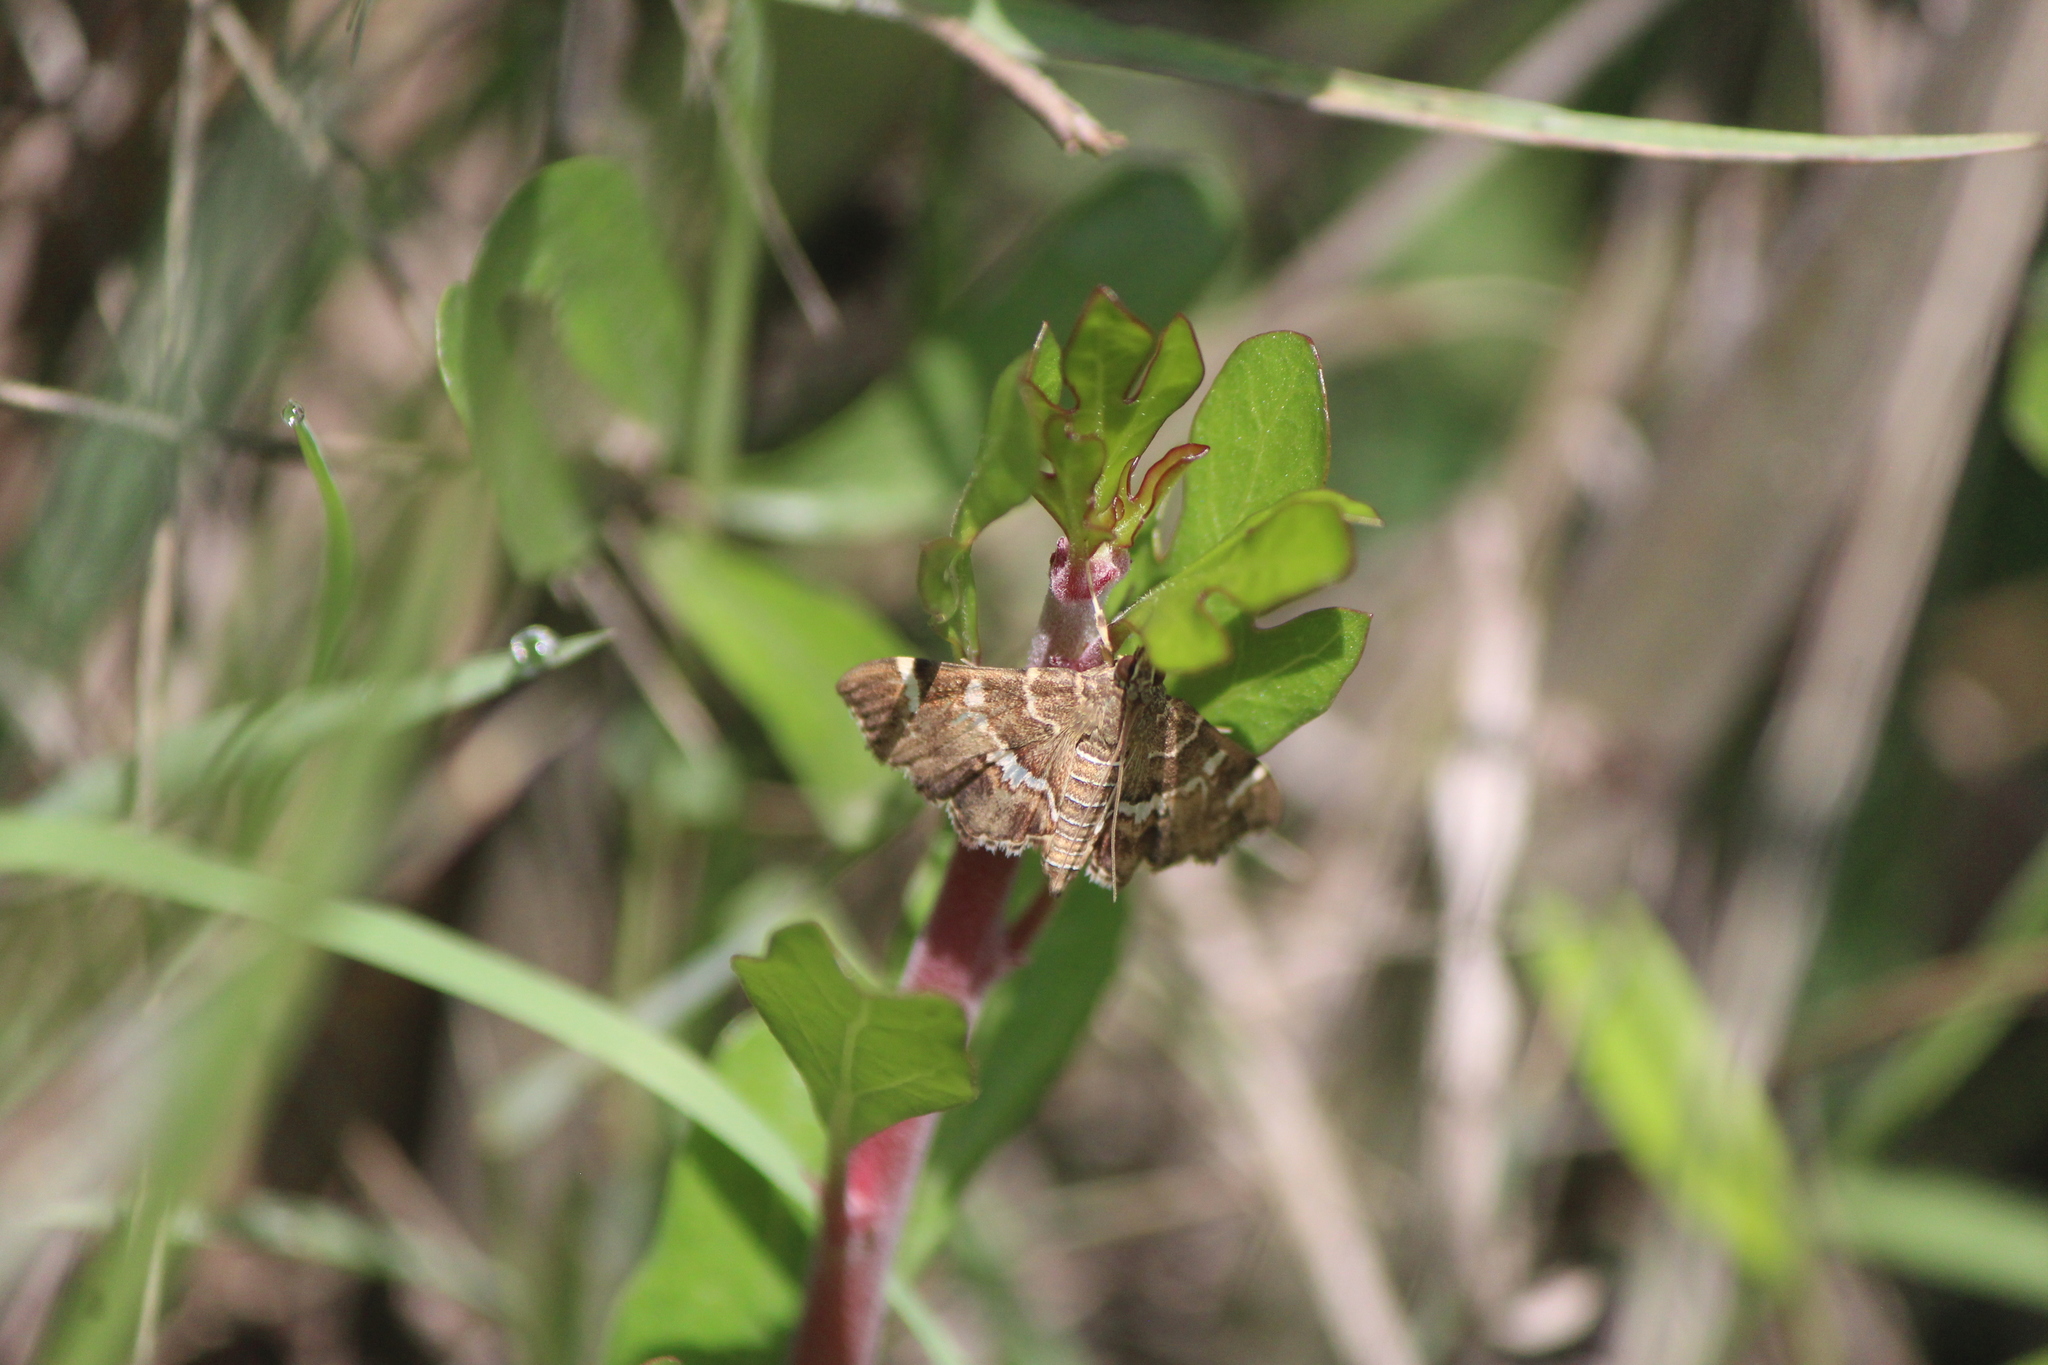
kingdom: Animalia
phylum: Arthropoda
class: Insecta
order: Lepidoptera
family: Crambidae
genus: Hymenia
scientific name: Hymenia perspectalis
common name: Spotted beet webworm
